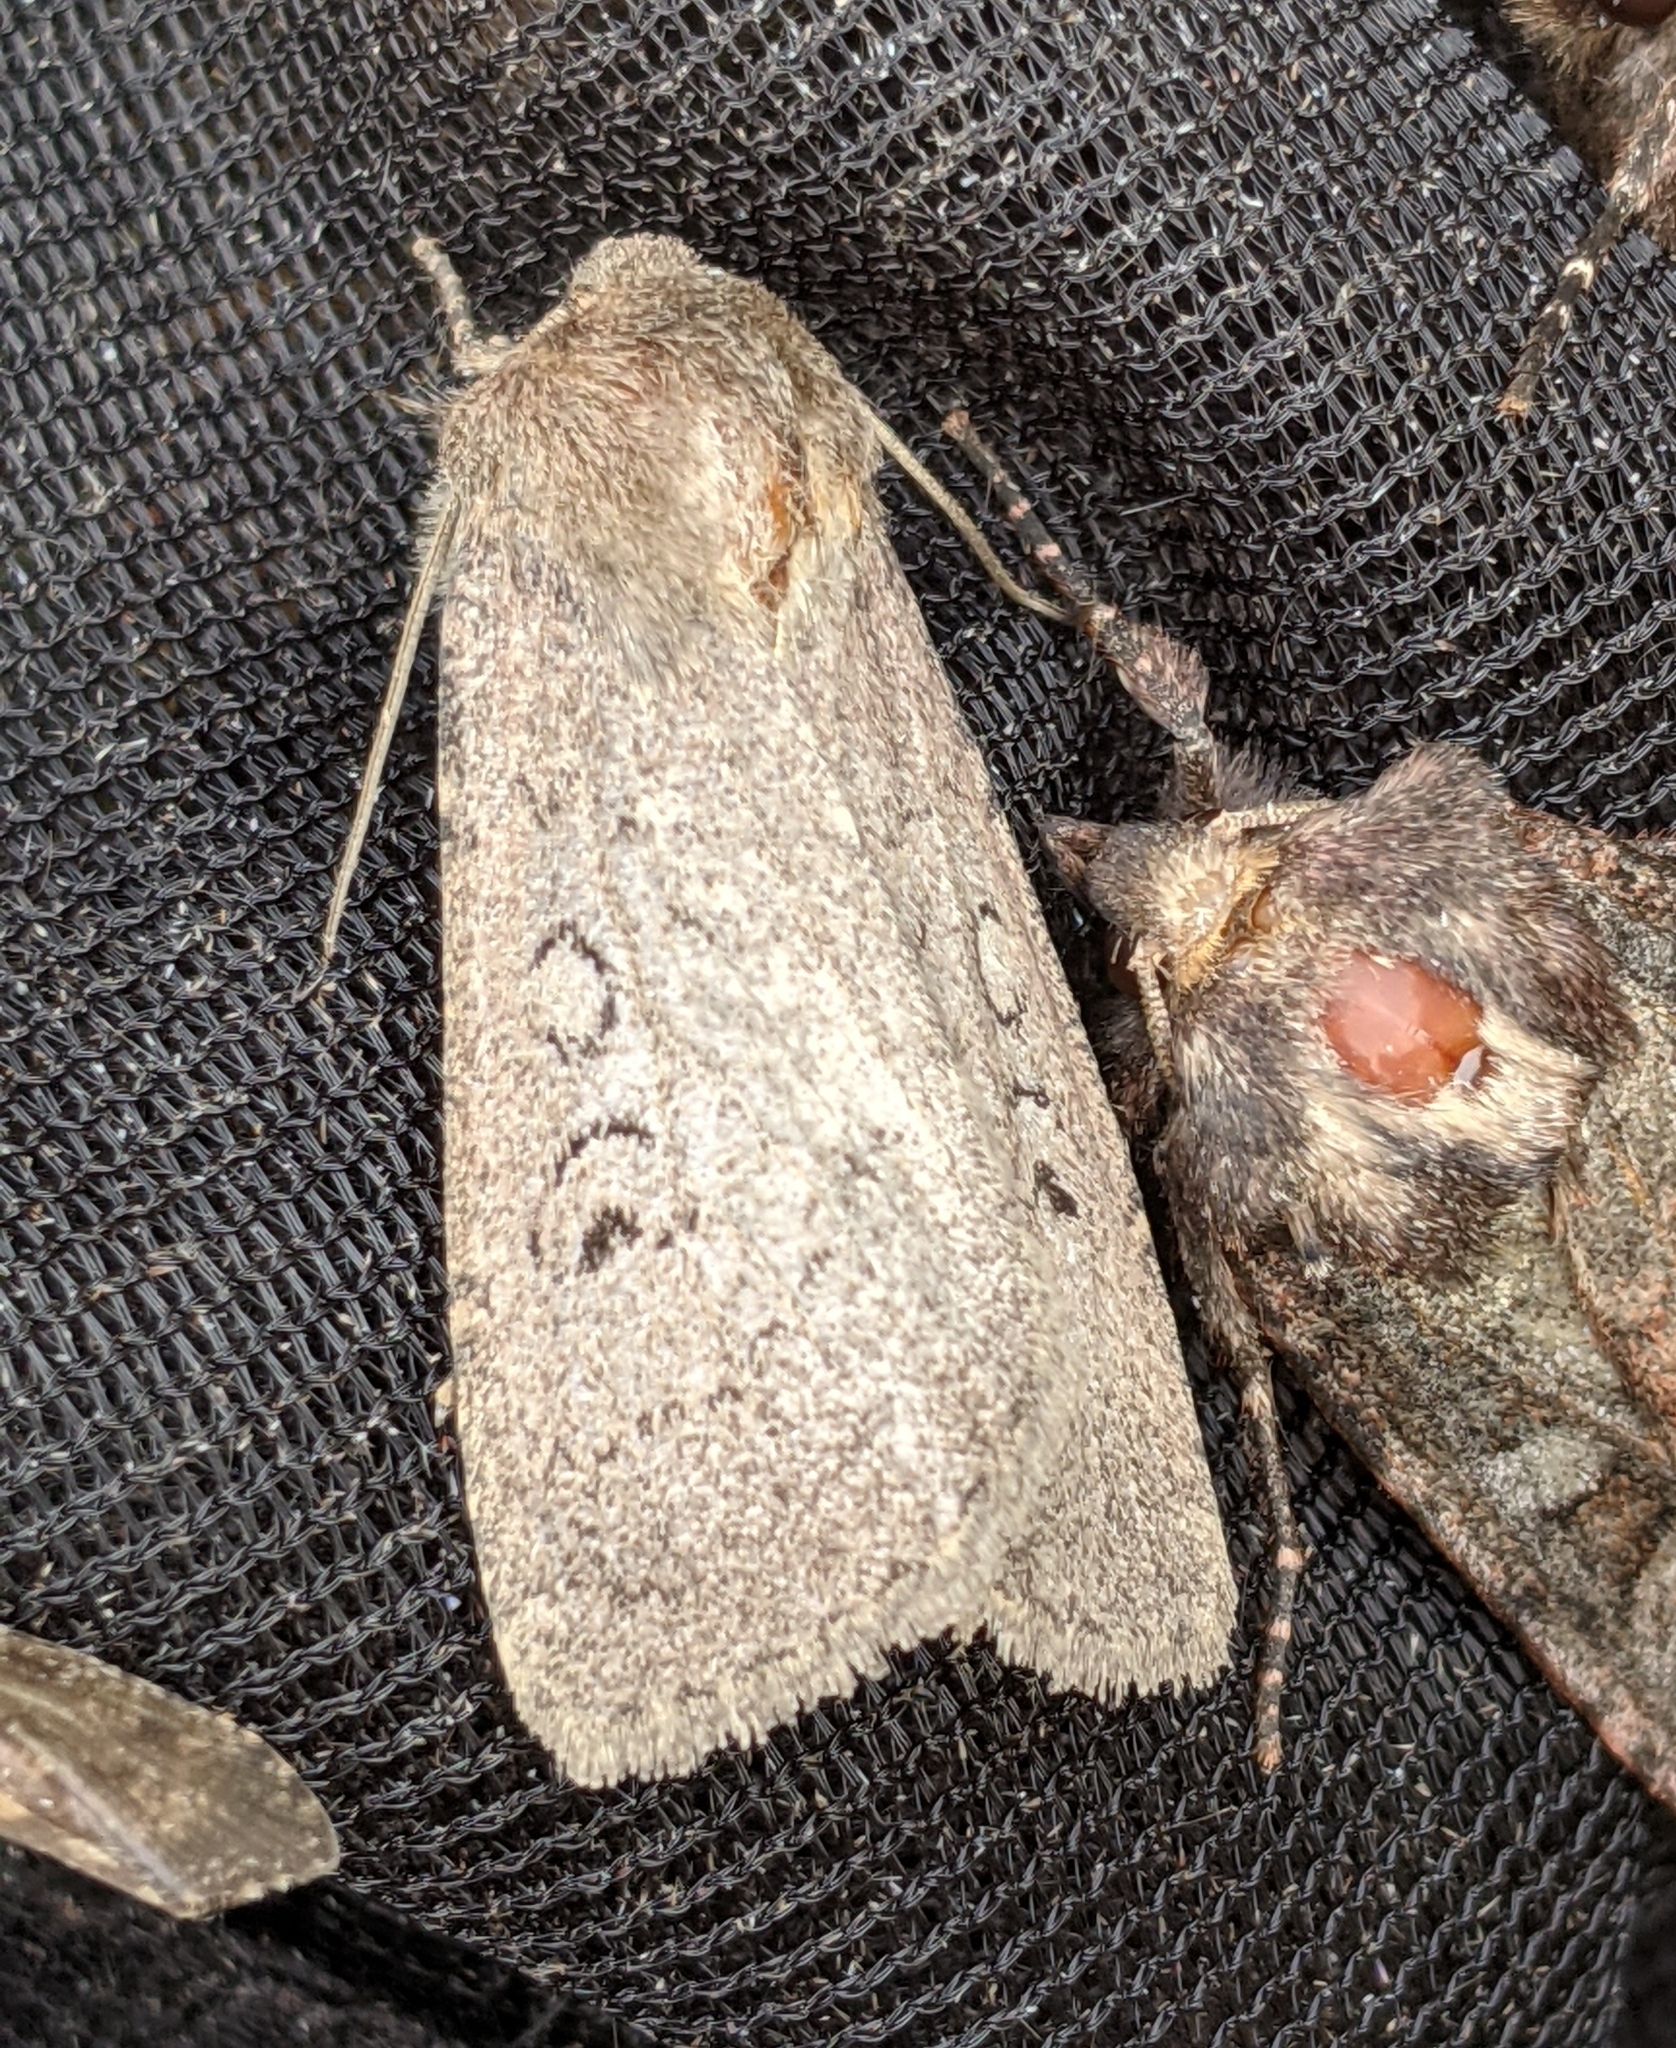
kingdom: Animalia
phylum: Arthropoda
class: Insecta
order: Lepidoptera
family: Noctuidae
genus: Graphiphora
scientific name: Graphiphora augur
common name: Double dart
